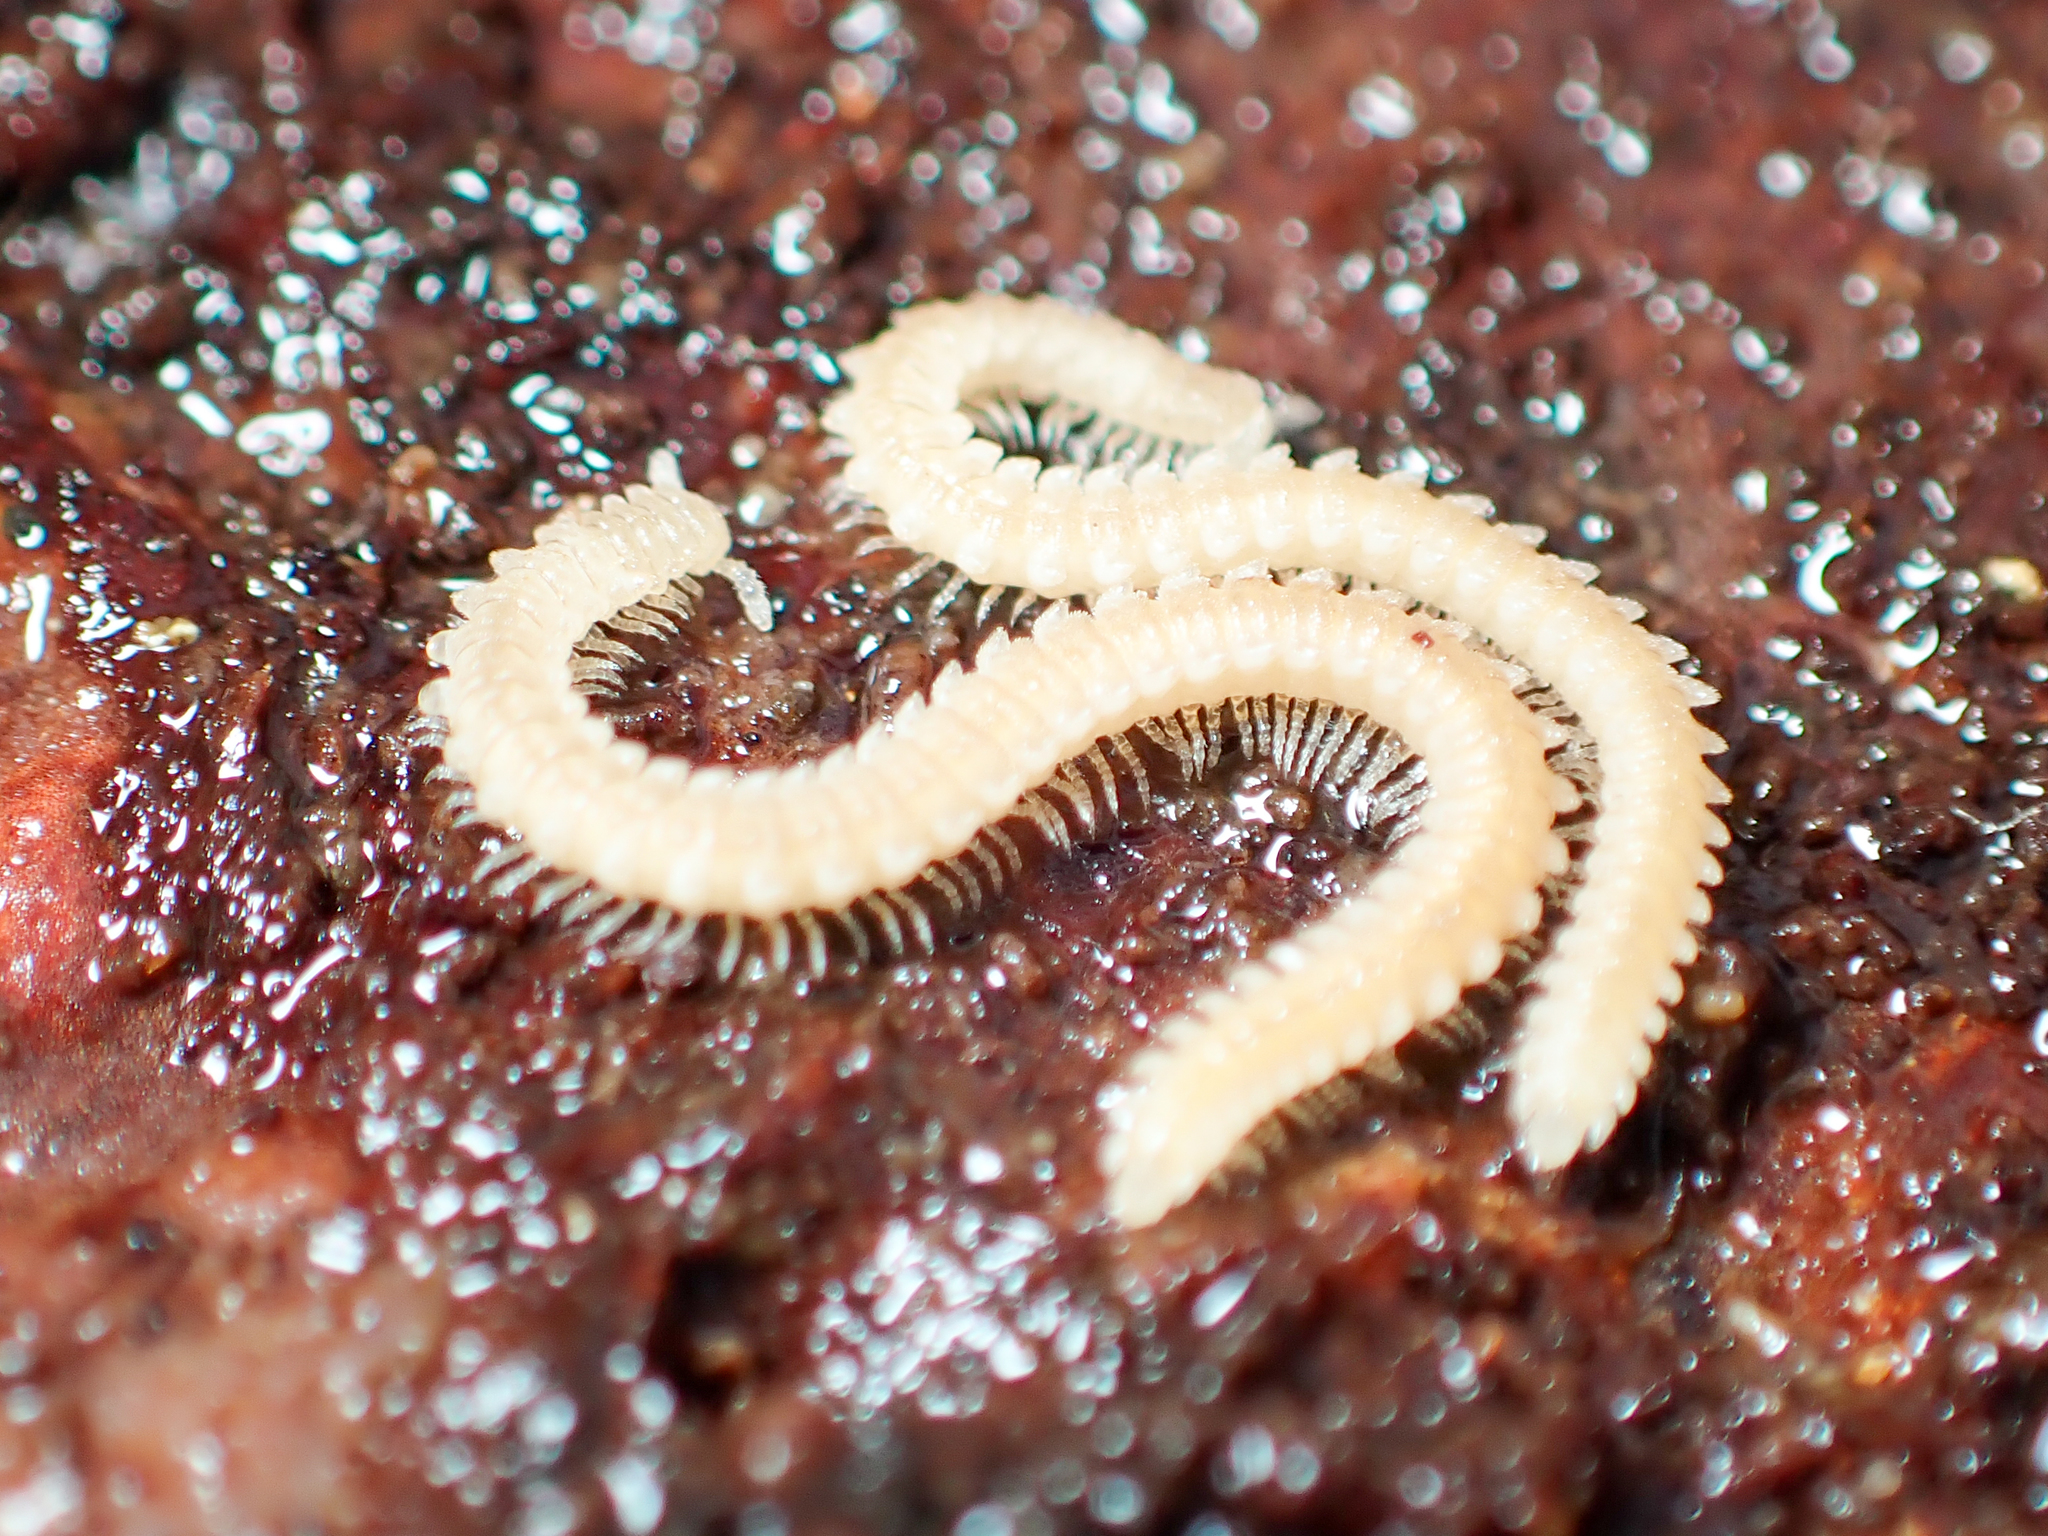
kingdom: Animalia
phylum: Arthropoda
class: Diplopoda
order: Platydesmida
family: Andrognathidae
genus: Andrognathus
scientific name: Andrognathus corticarius
